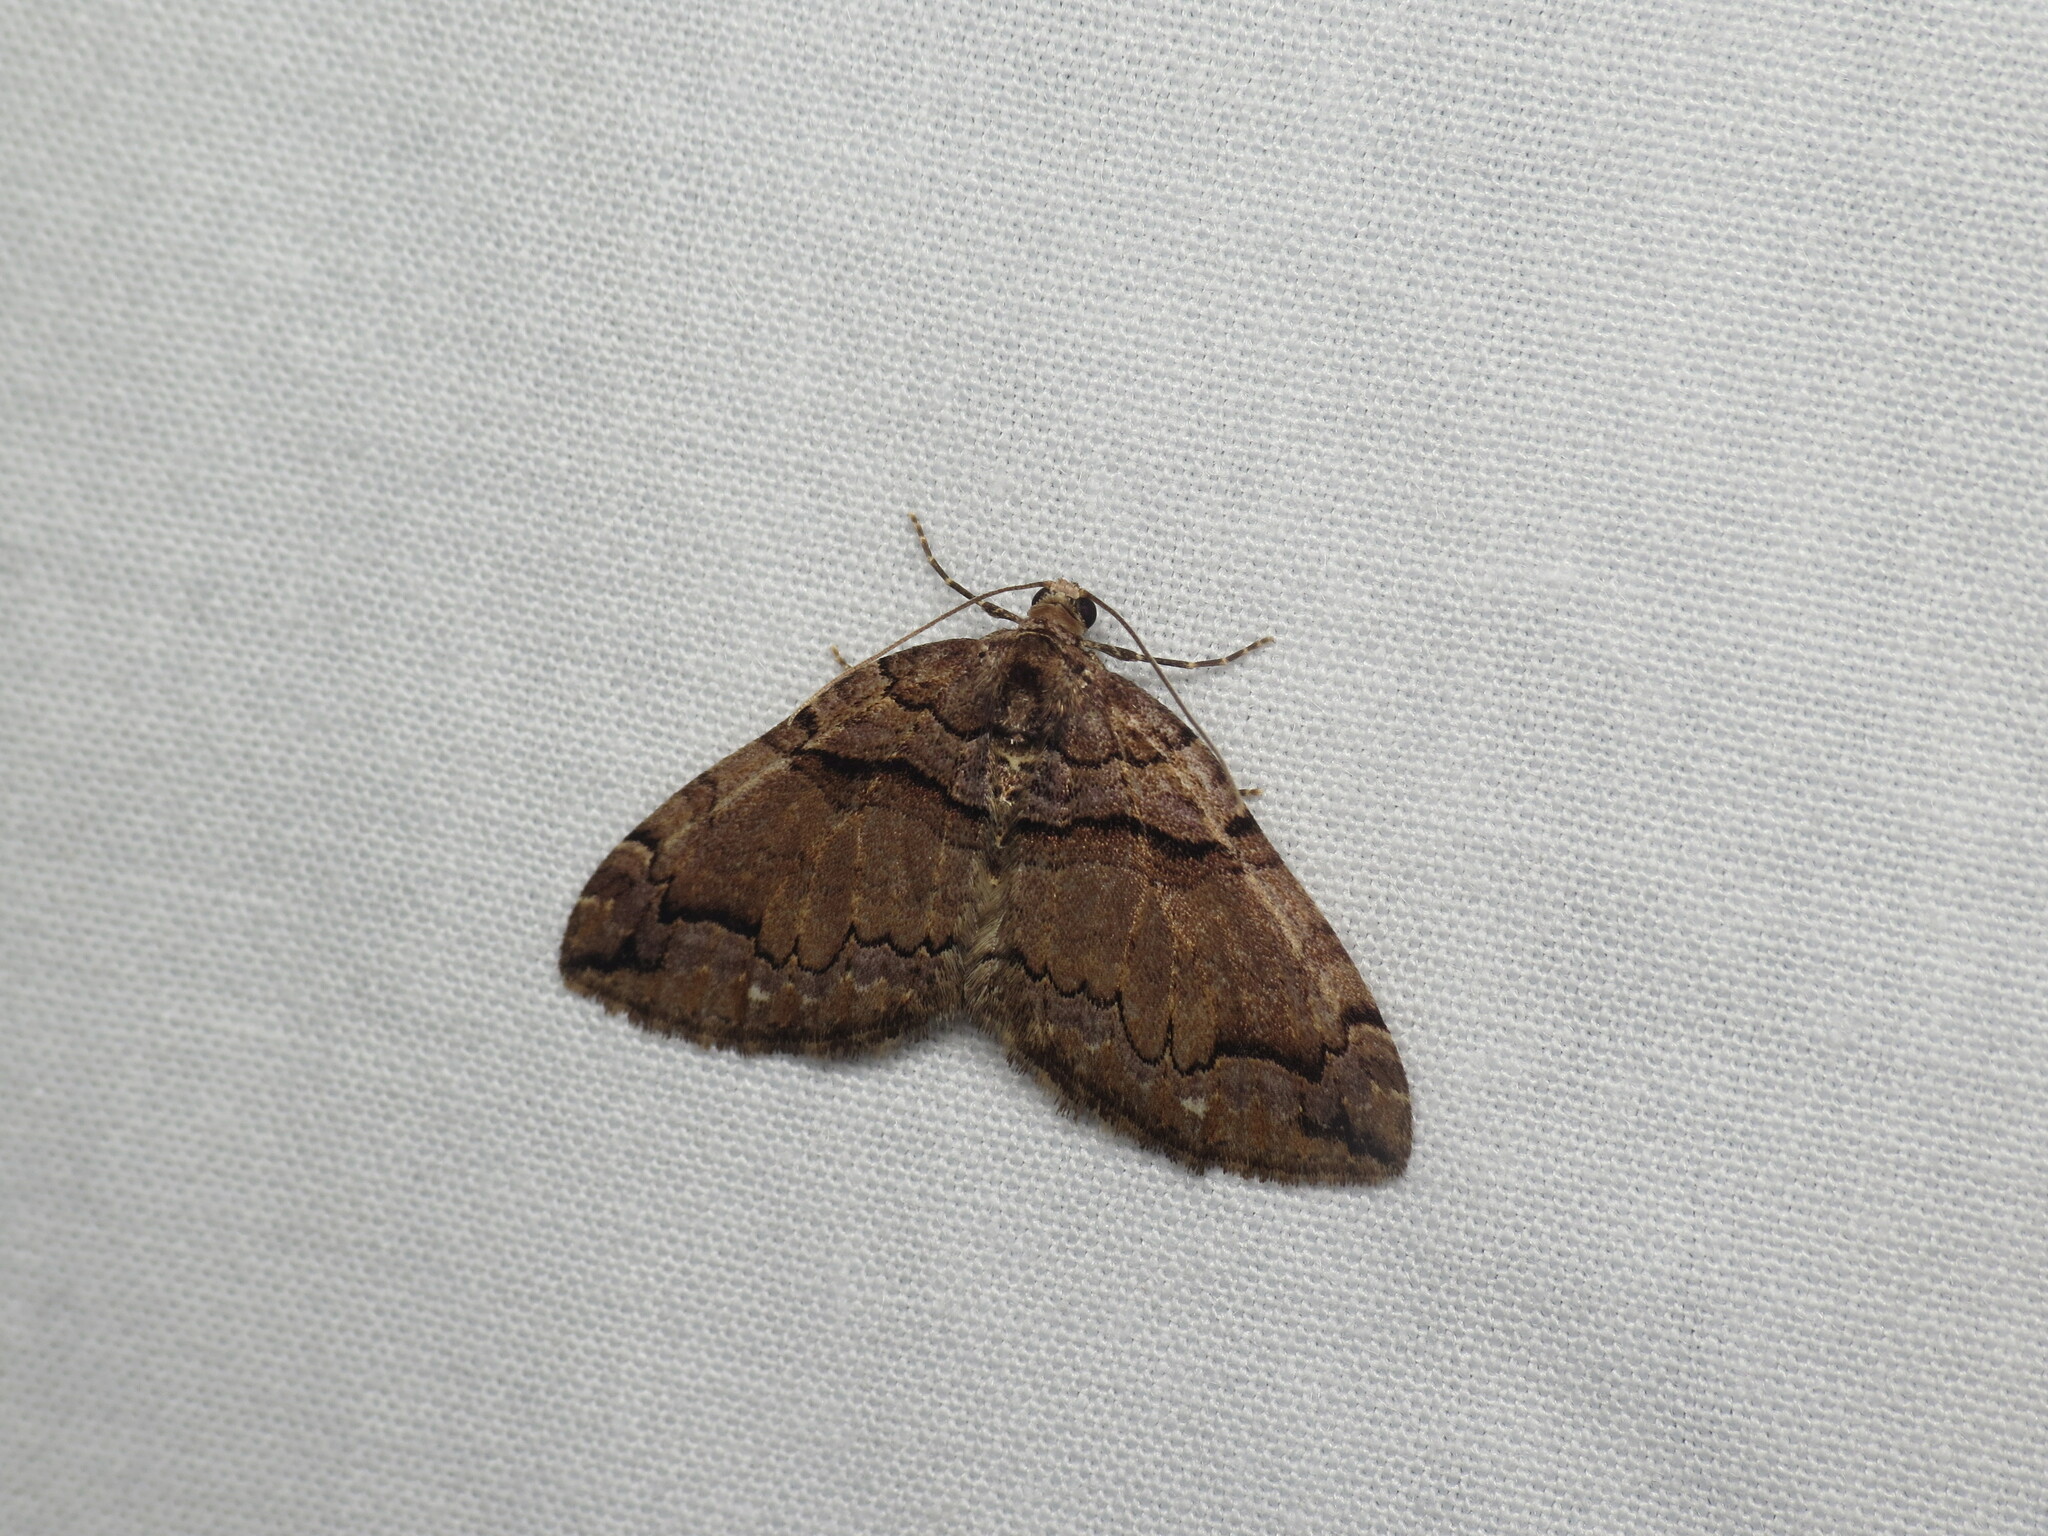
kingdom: Animalia
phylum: Arthropoda
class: Insecta
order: Lepidoptera
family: Geometridae
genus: Anticlea
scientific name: Anticlea vasiliata
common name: Variable carpet
